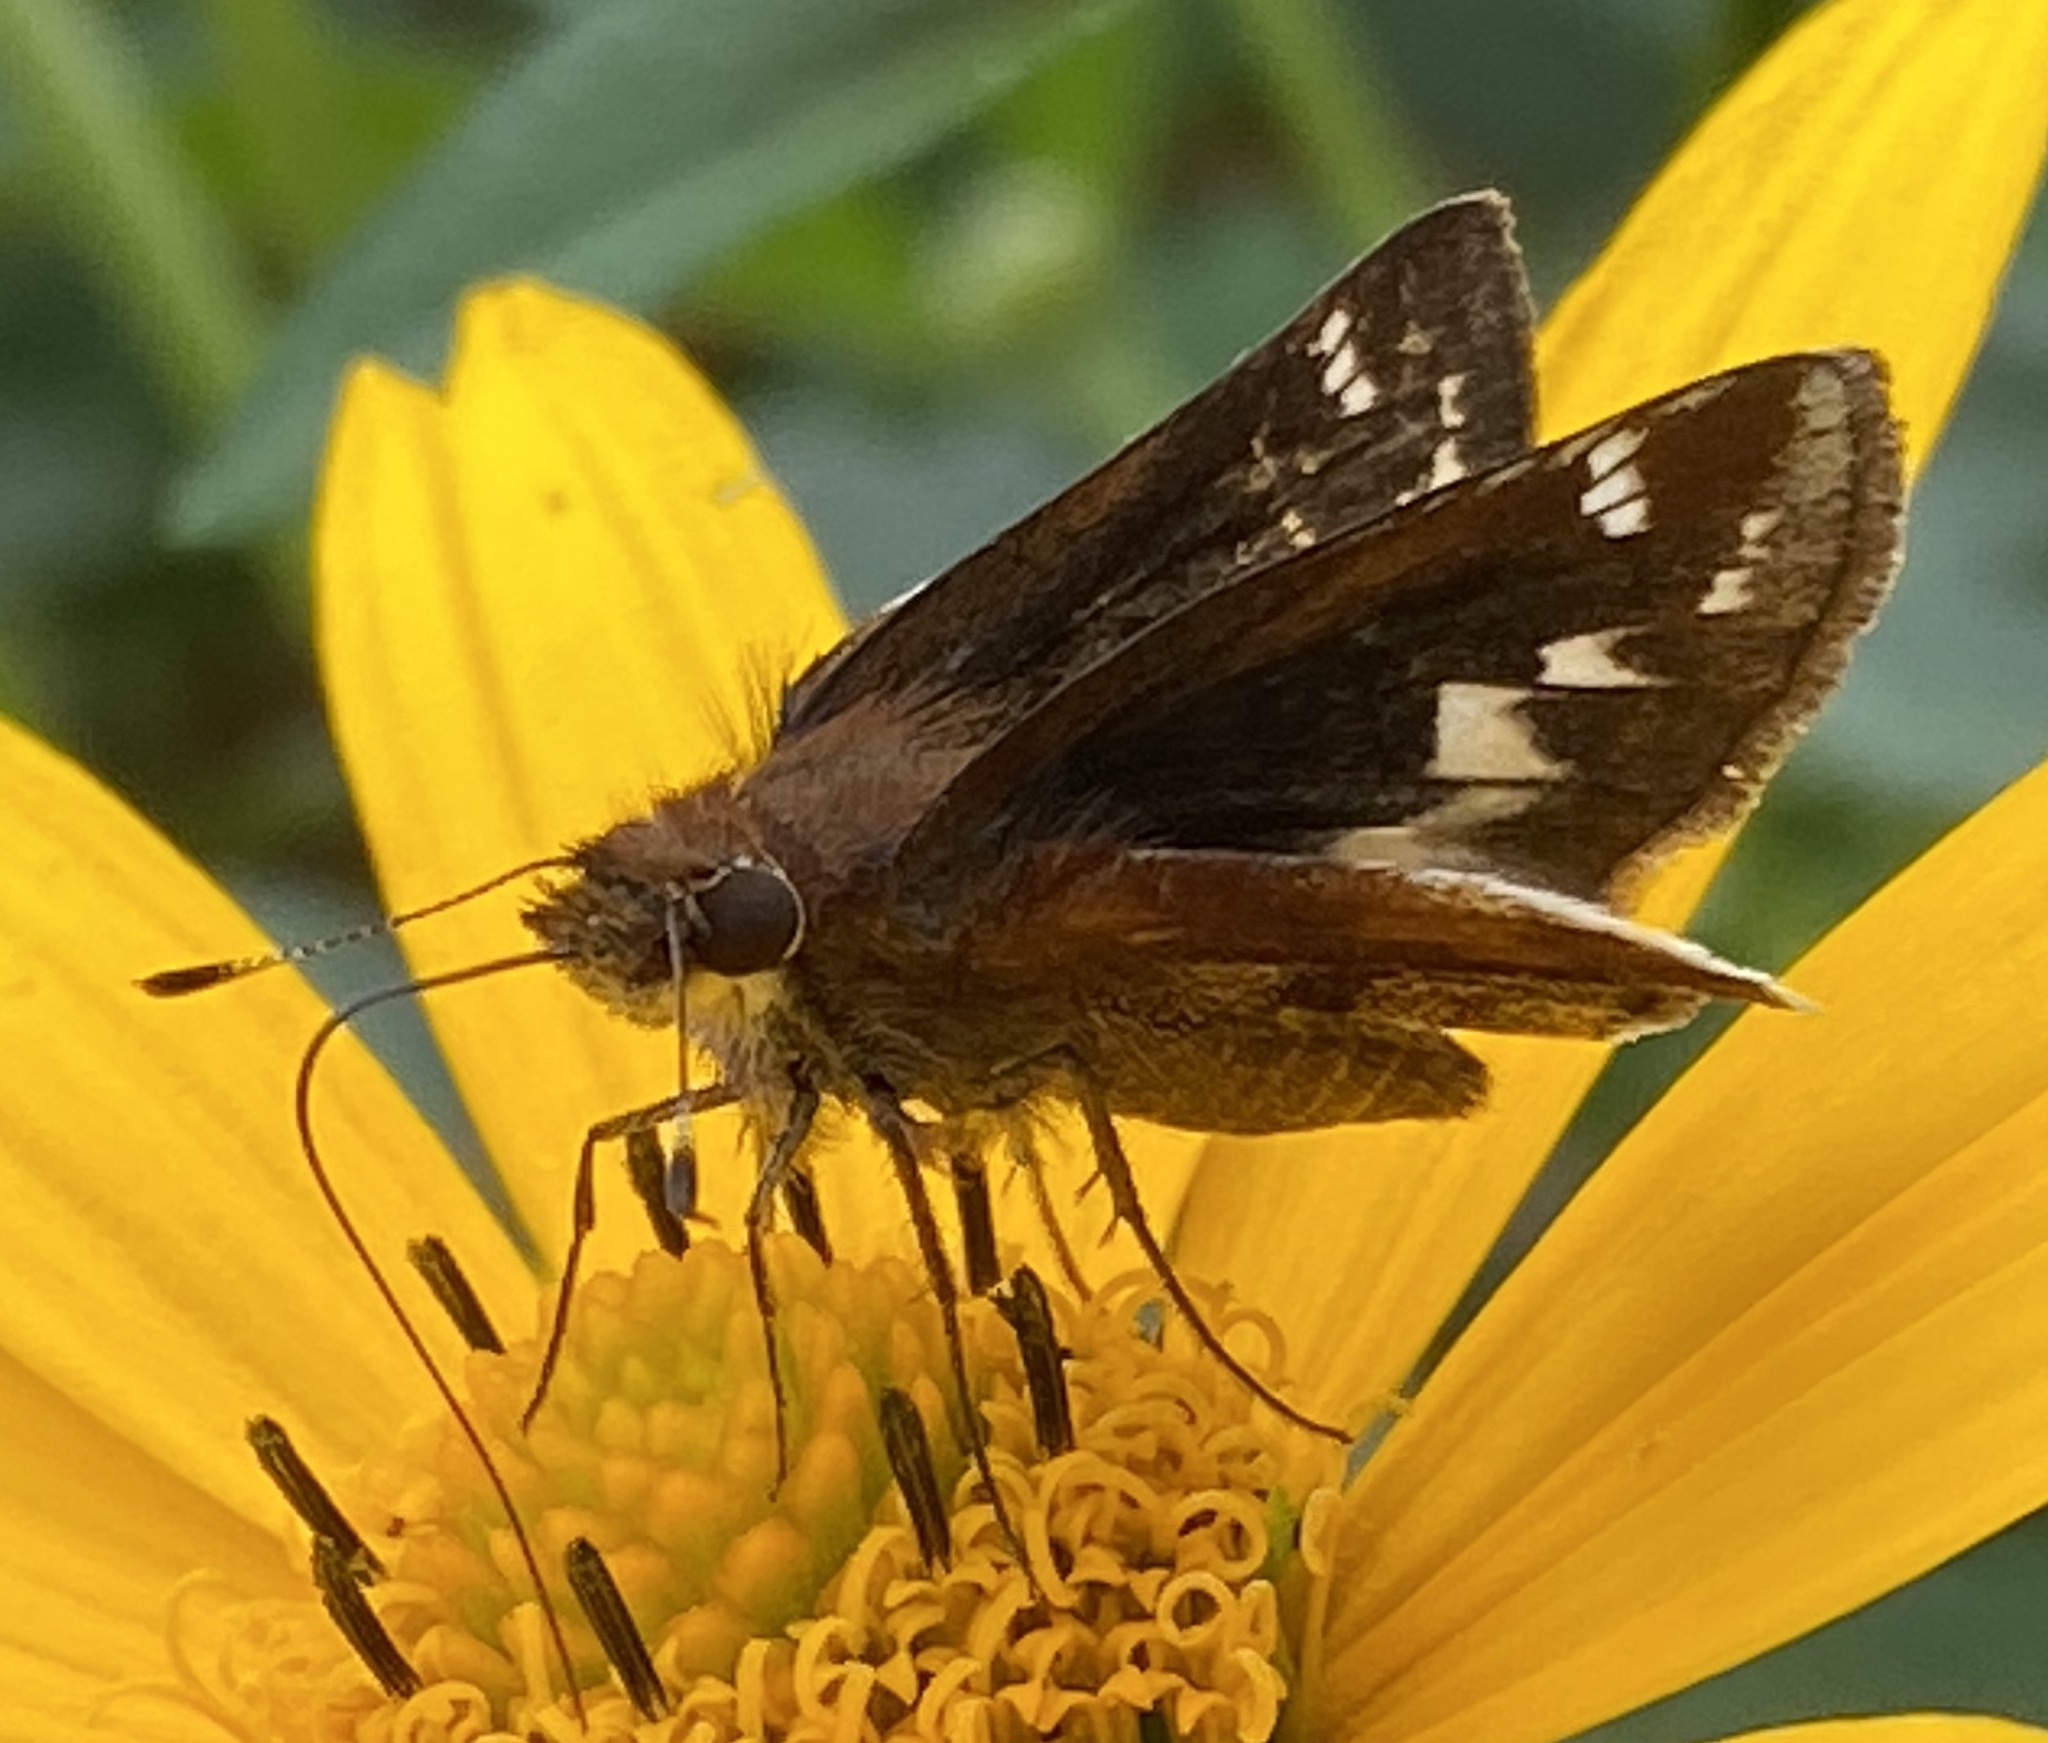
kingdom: Animalia
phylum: Arthropoda
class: Insecta
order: Lepidoptera
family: Hesperiidae
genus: Lon
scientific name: Lon zabulon
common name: Zabulon skipper
